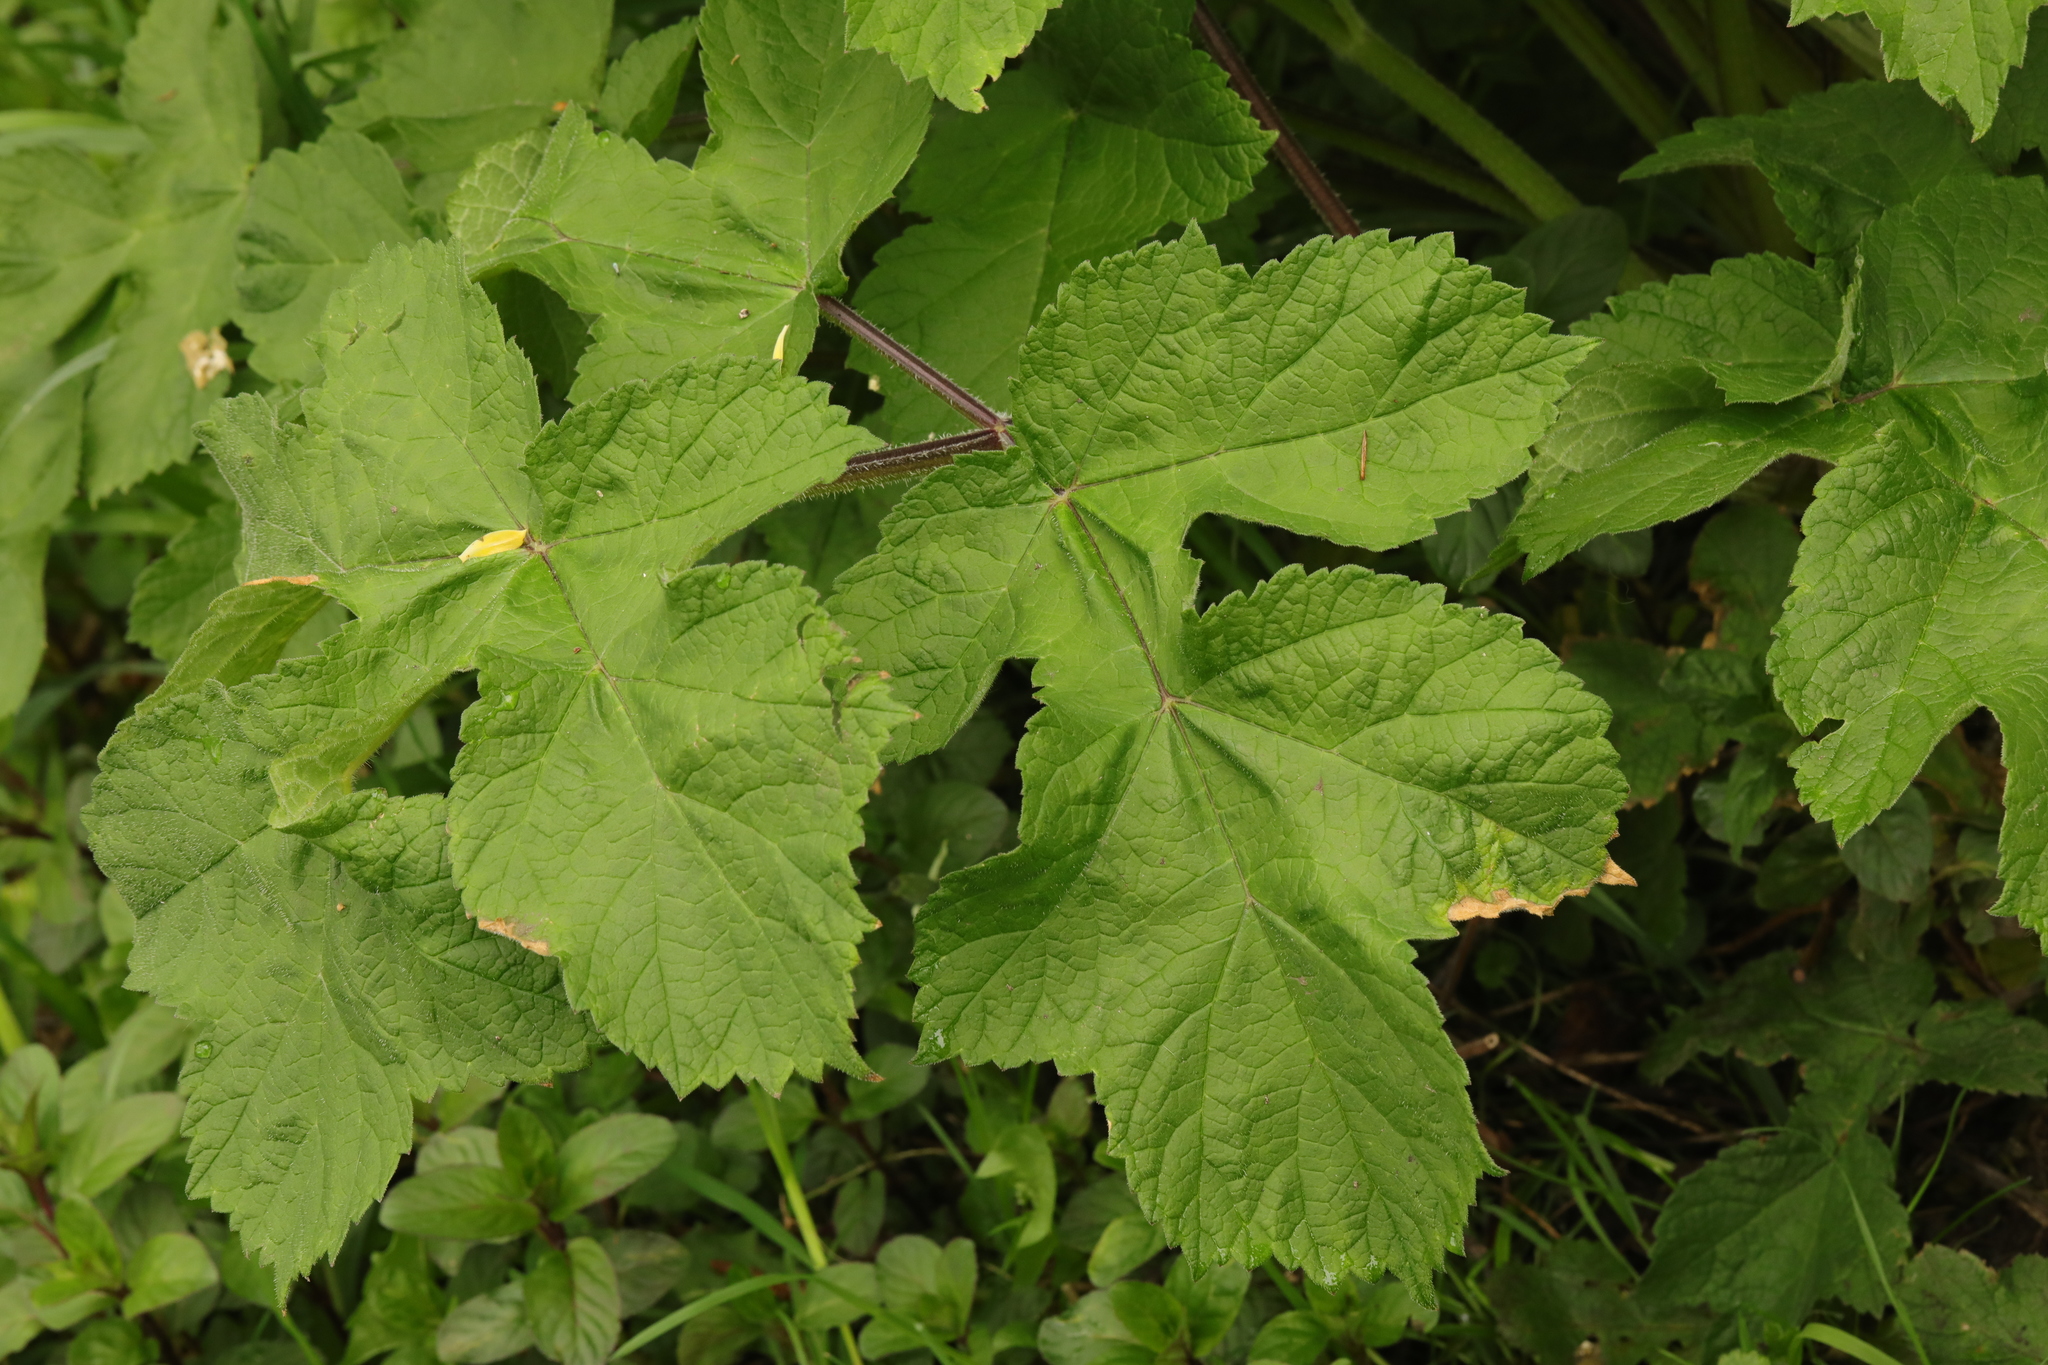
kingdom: Plantae
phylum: Tracheophyta
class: Magnoliopsida
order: Apiales
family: Apiaceae
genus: Heracleum
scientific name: Heracleum sphondylium
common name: Hogweed
